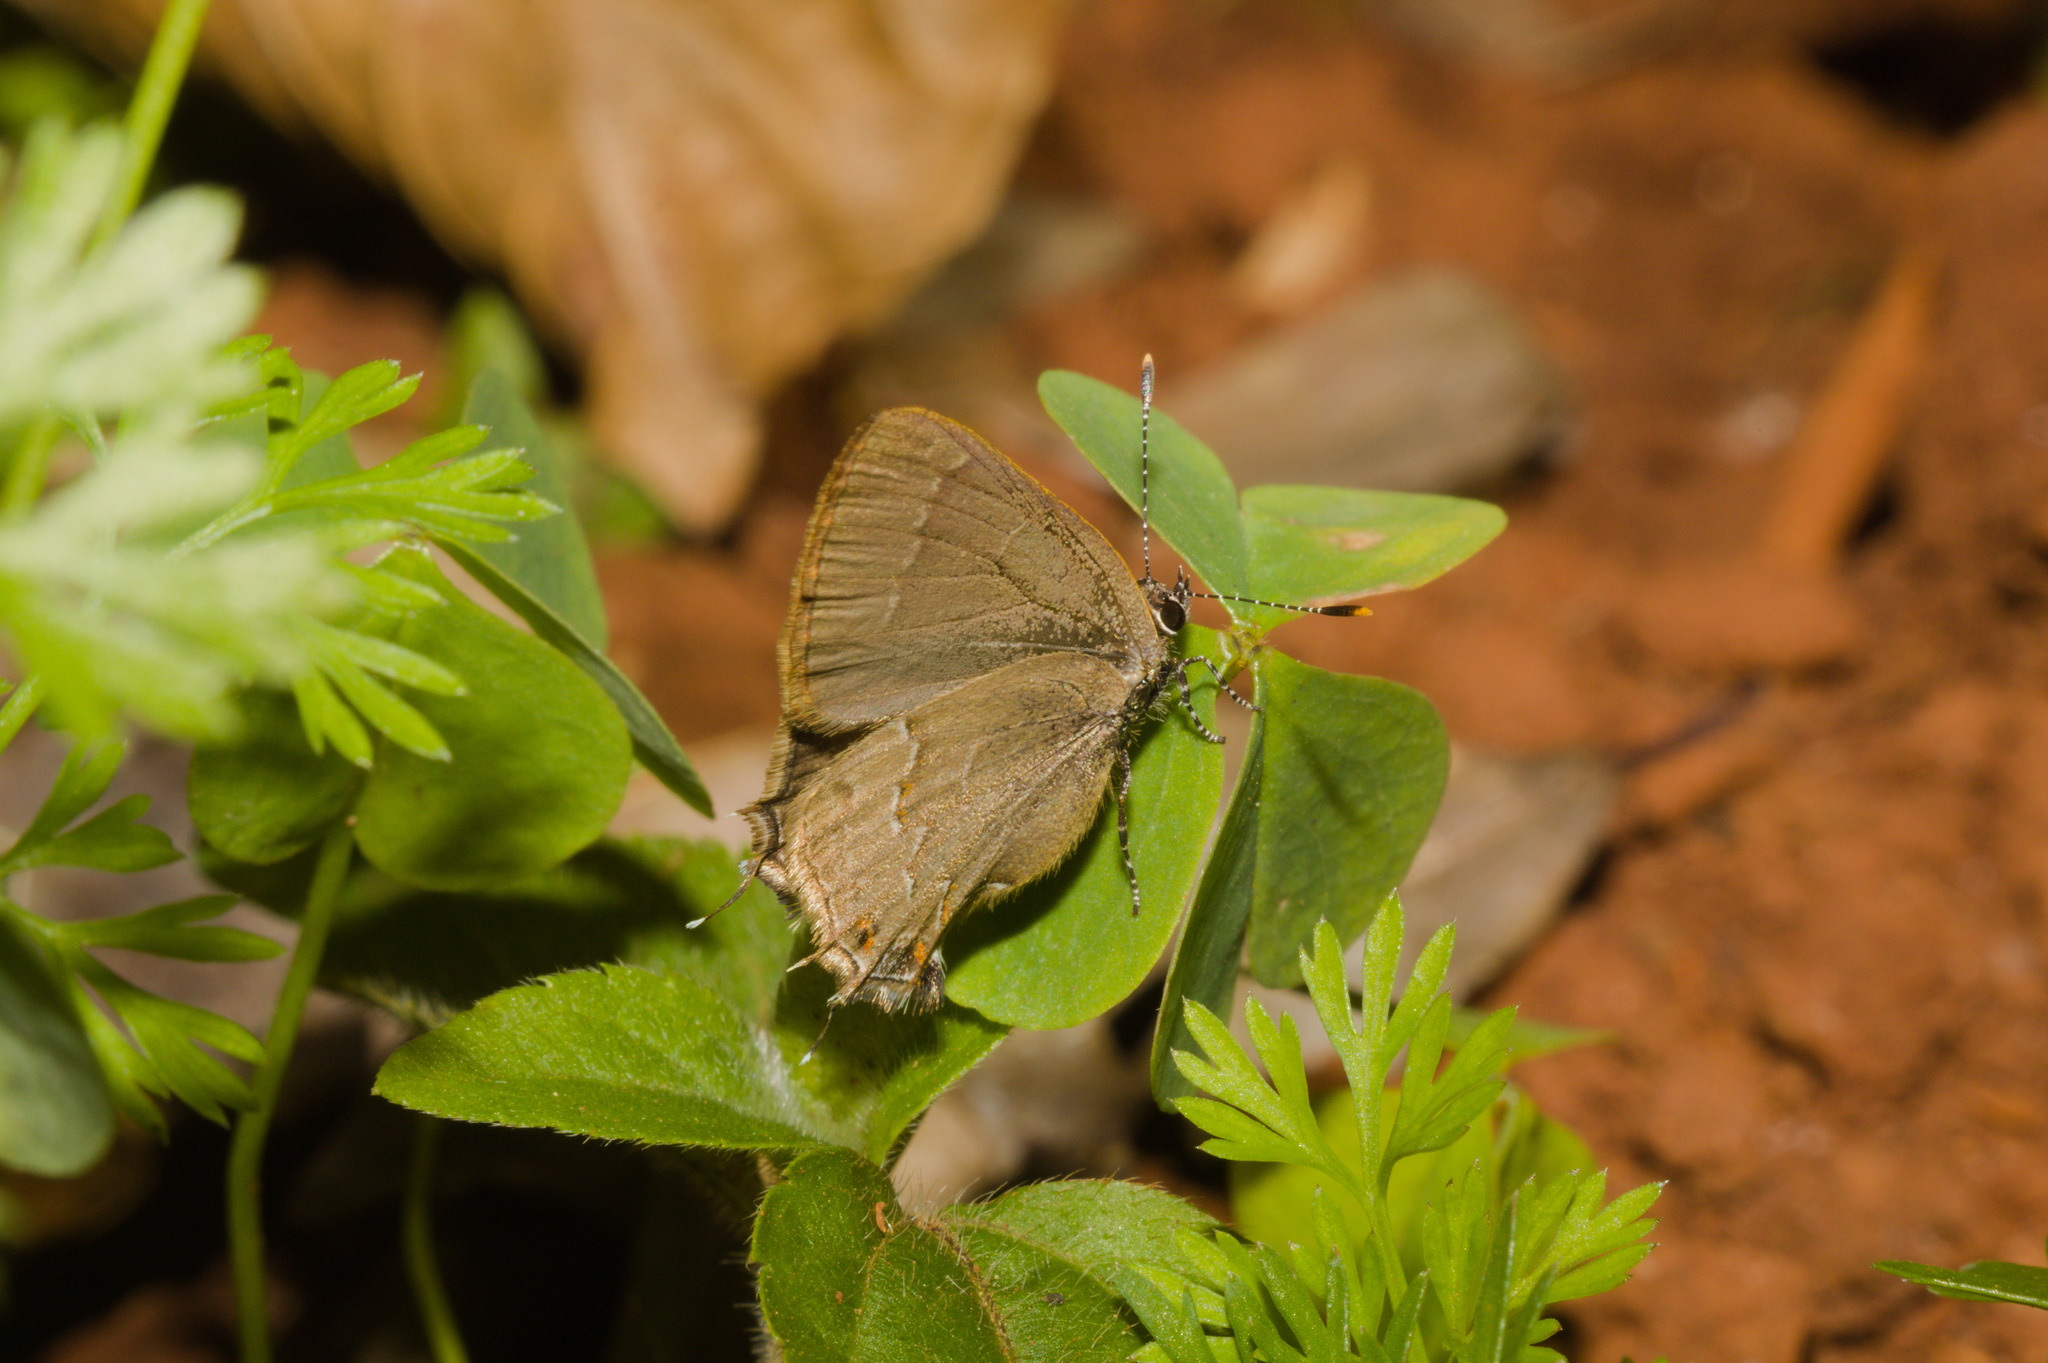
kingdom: Animalia
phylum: Arthropoda
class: Insecta
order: Lepidoptera
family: Lycaenidae
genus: Arzecla
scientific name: Arzecla
